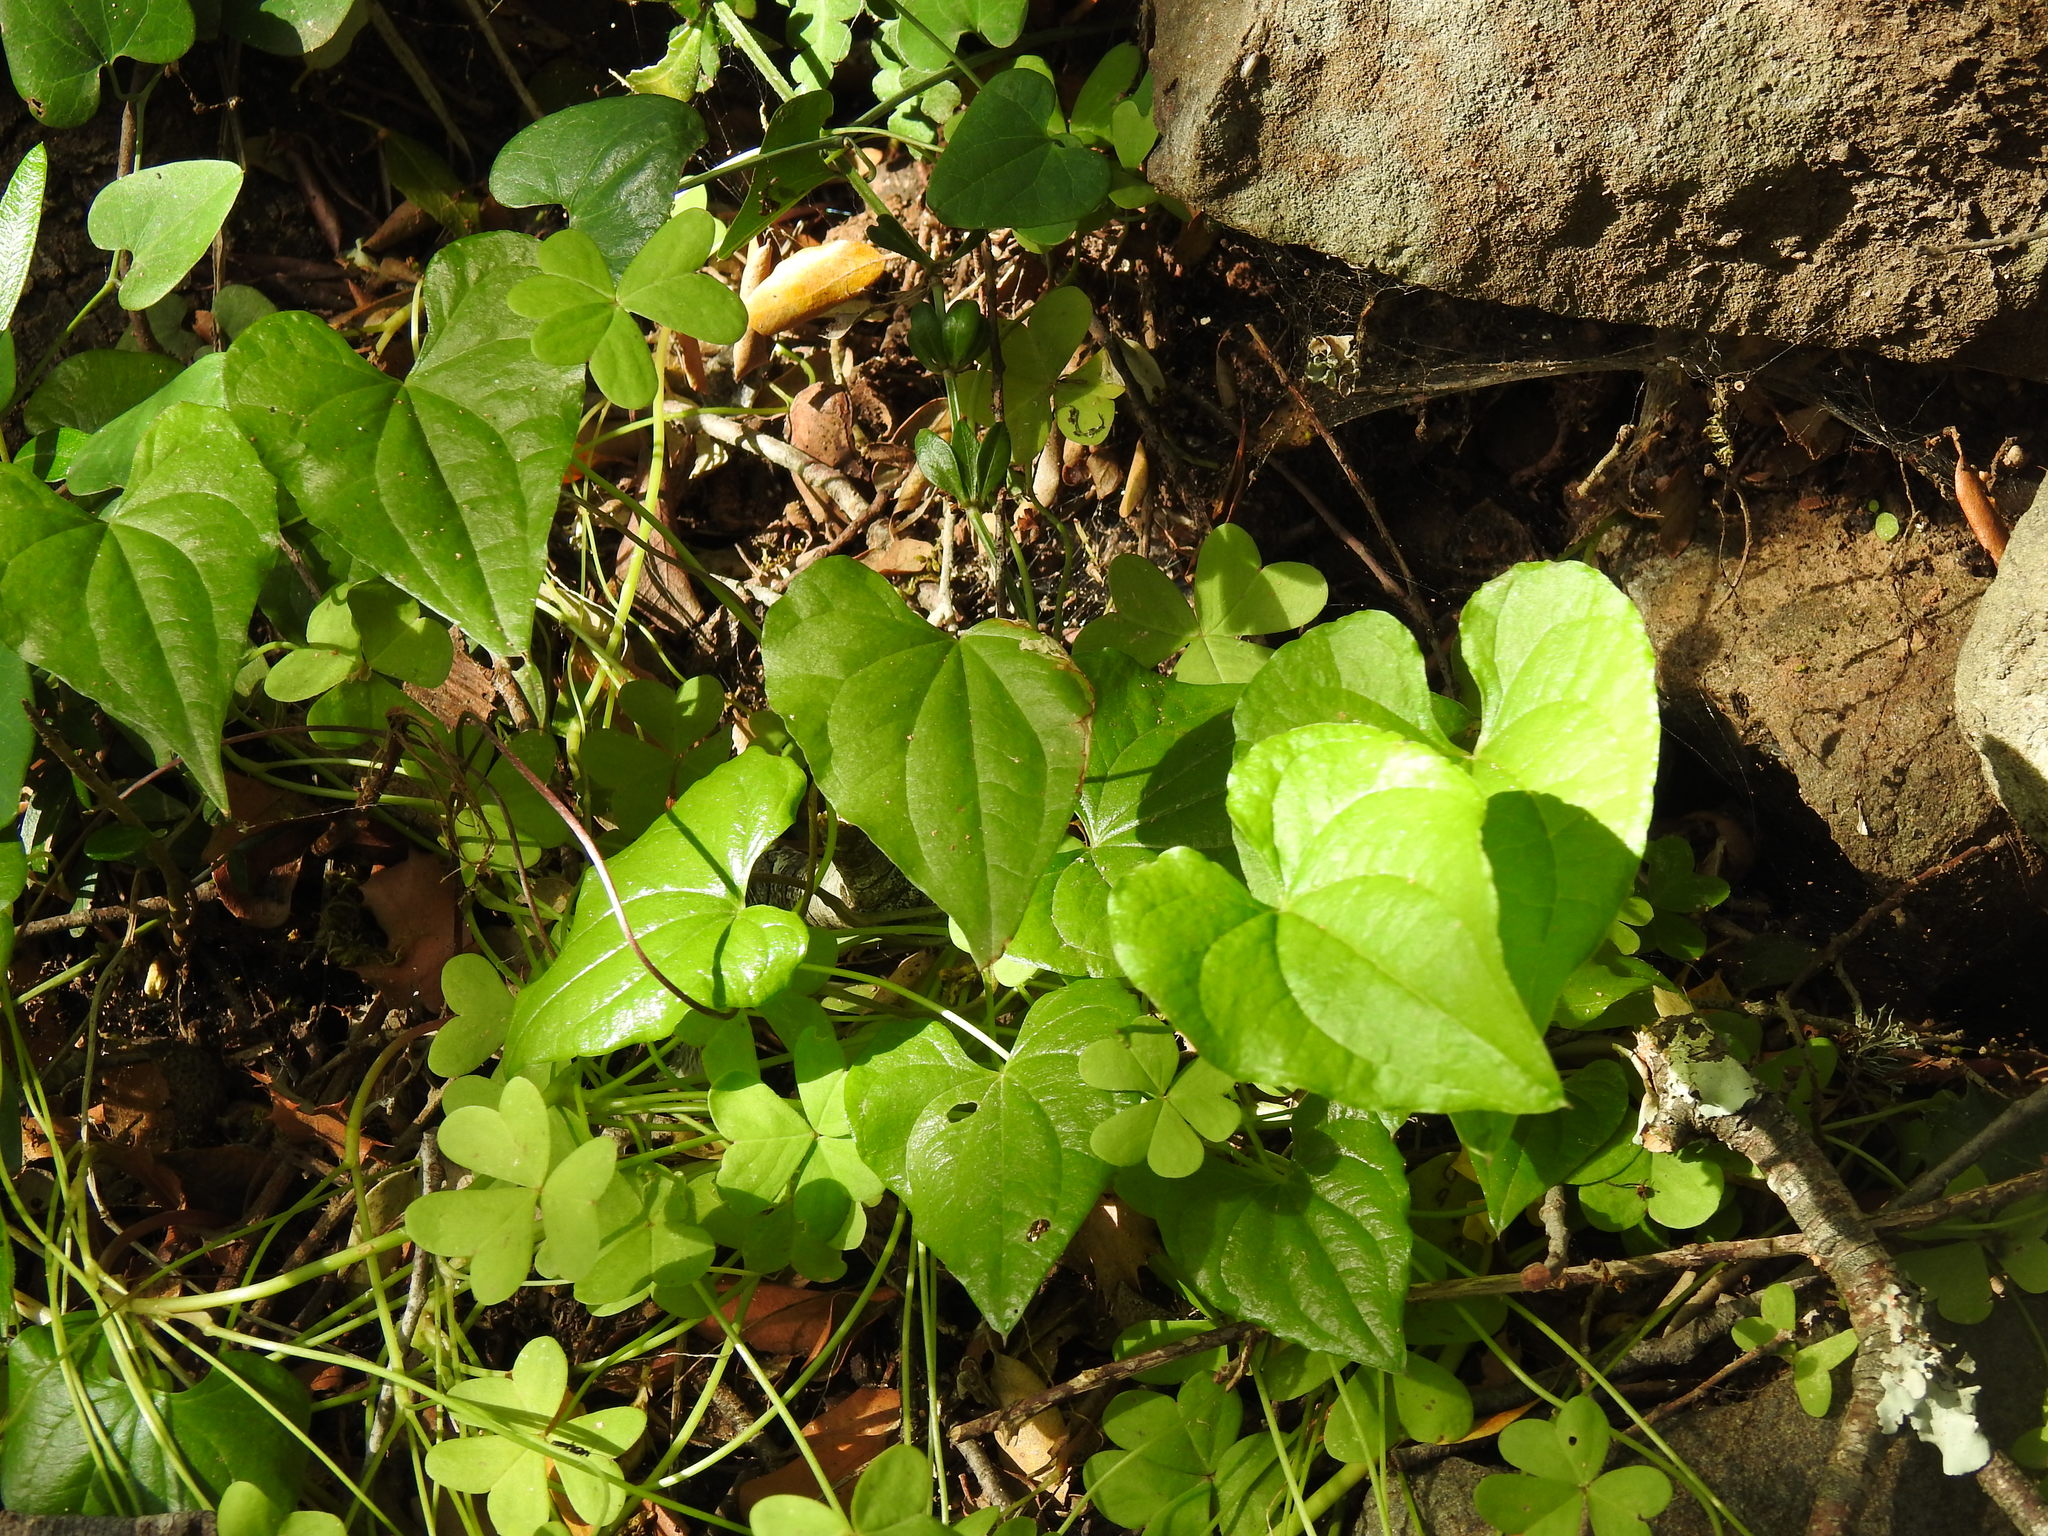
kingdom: Plantae
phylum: Tracheophyta
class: Liliopsida
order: Dioscoreales
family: Dioscoreaceae
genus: Dioscorea
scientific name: Dioscorea communis
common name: Black-bindweed
